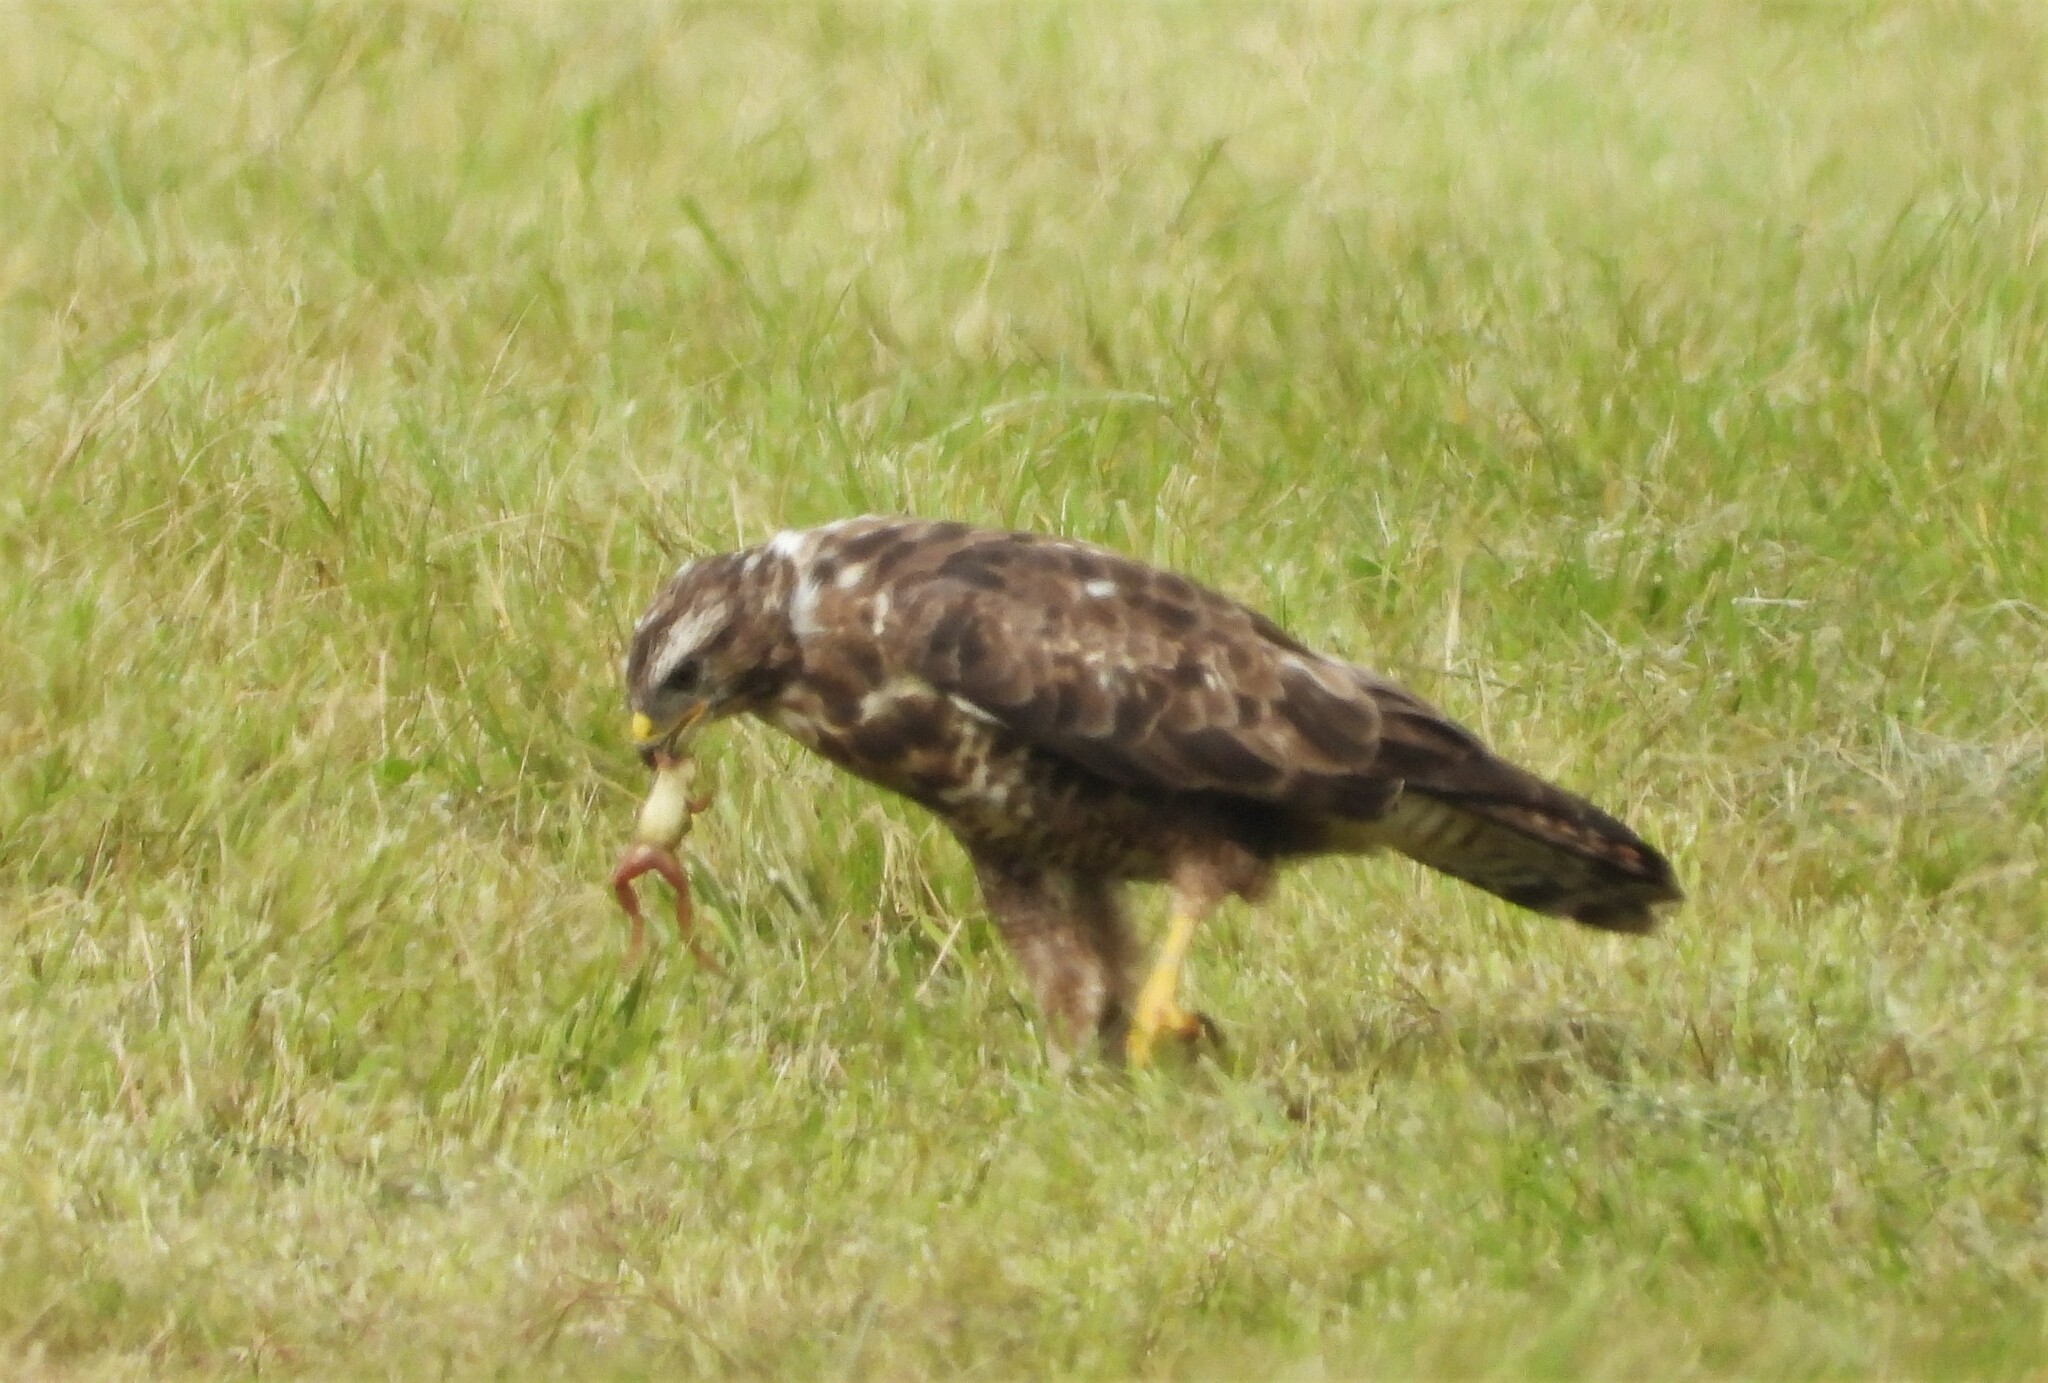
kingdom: Animalia
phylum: Chordata
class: Aves
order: Accipitriformes
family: Accipitridae
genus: Buteo
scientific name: Buteo buteo
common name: Common buzzard
